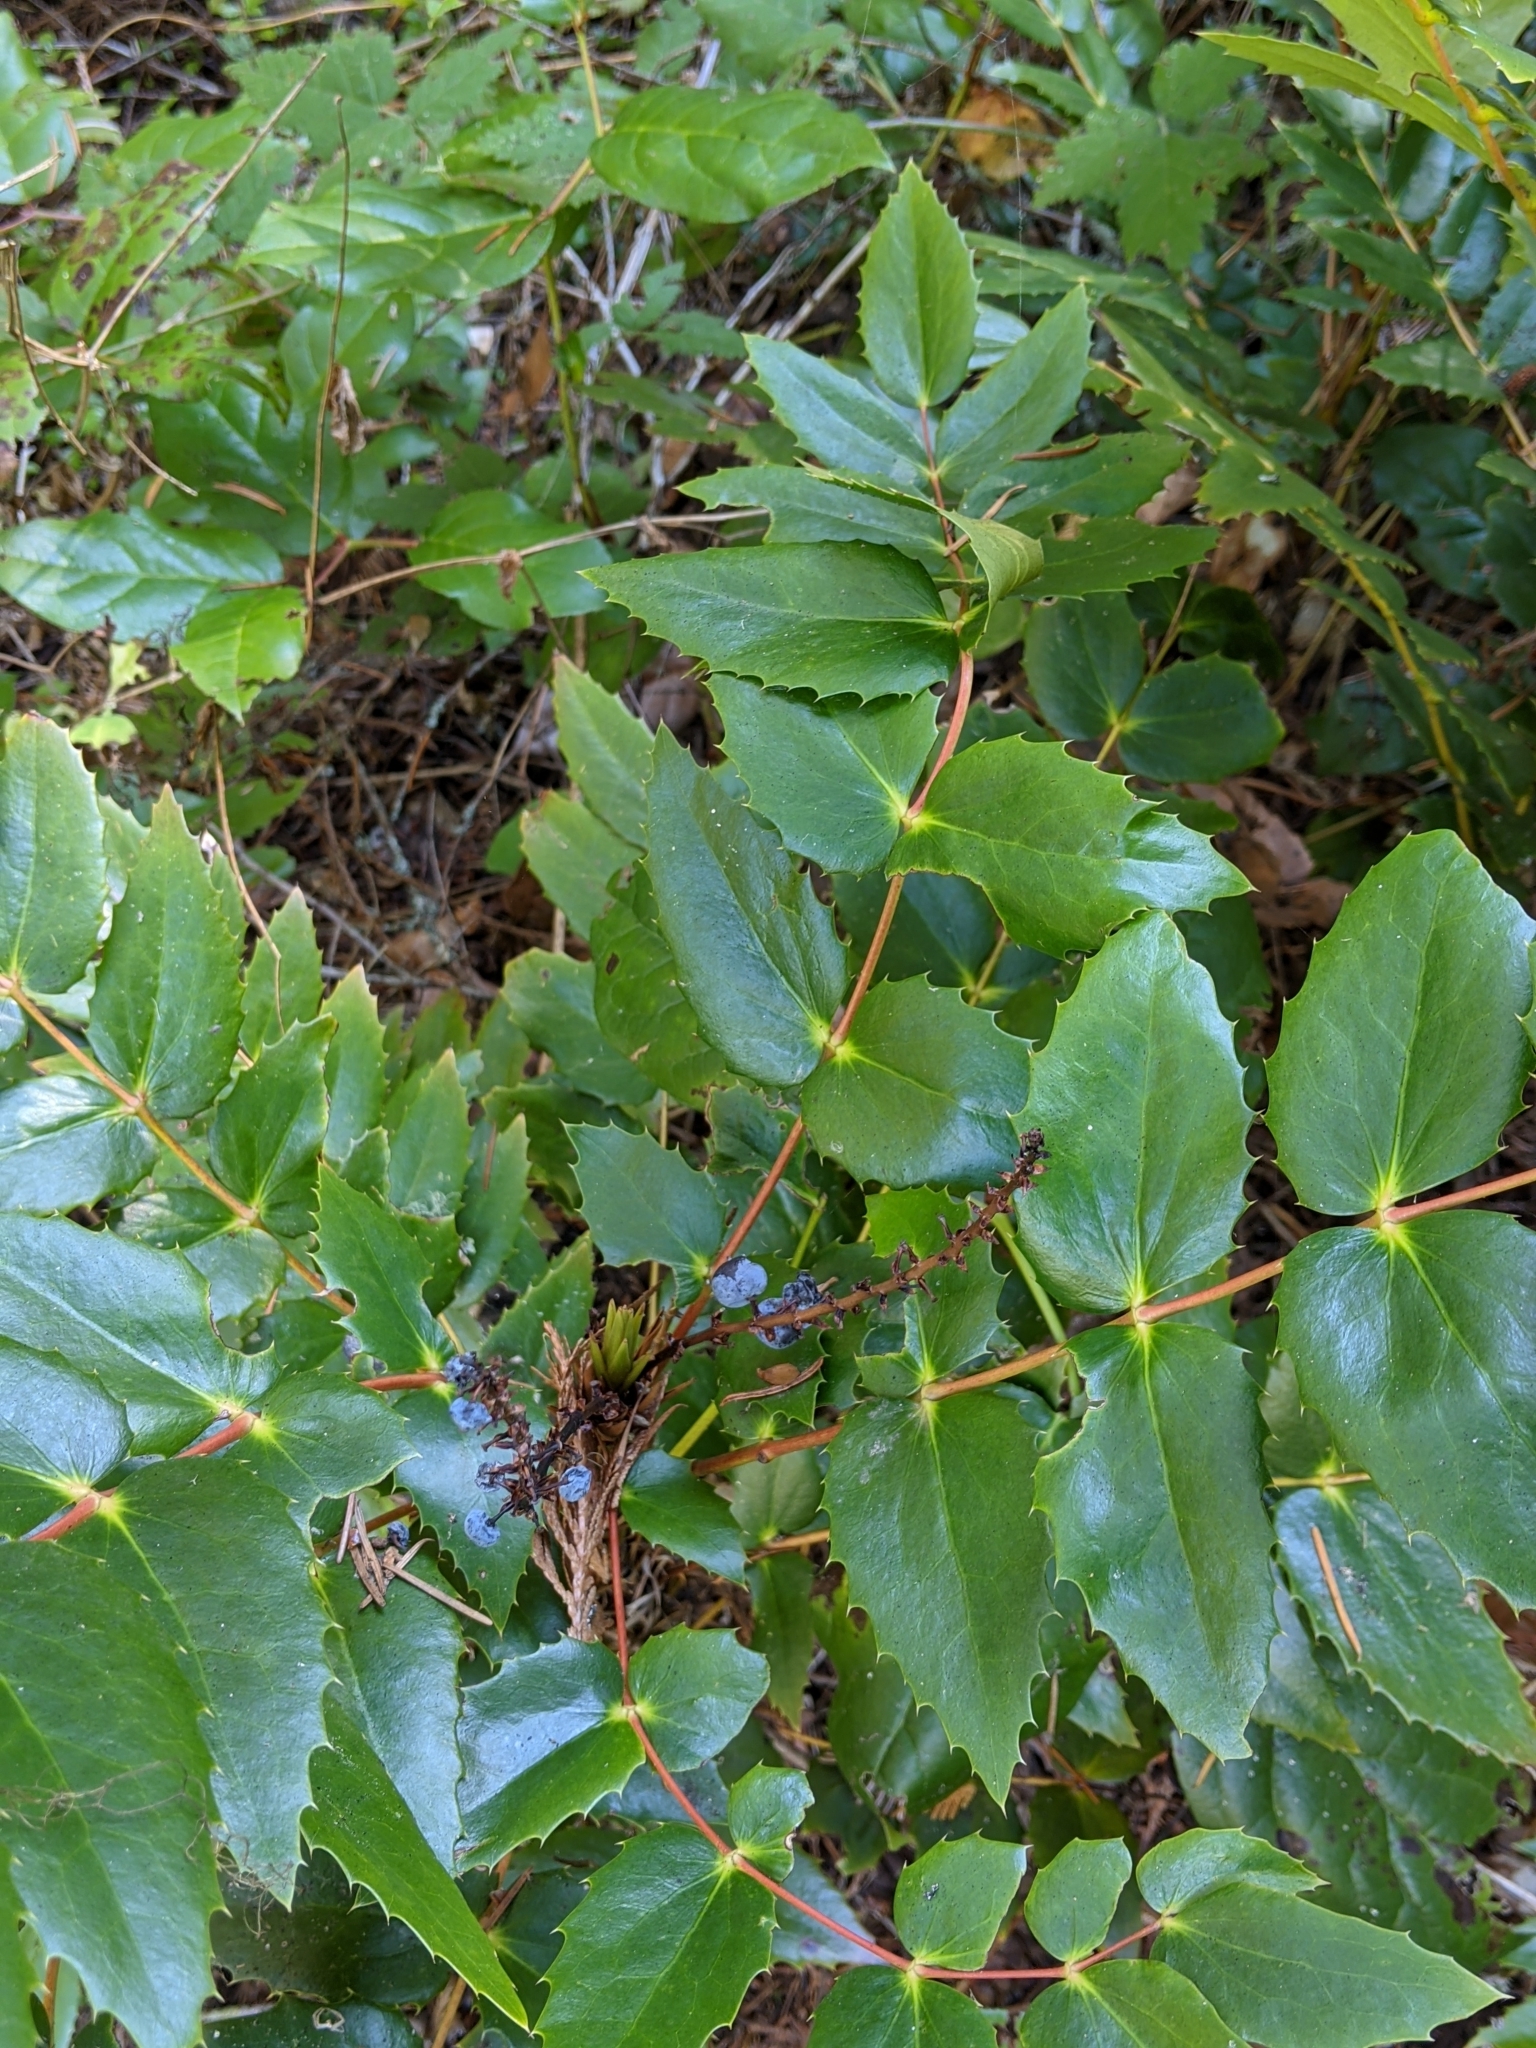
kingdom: Plantae
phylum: Tracheophyta
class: Magnoliopsida
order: Ranunculales
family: Berberidaceae
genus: Mahonia
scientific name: Mahonia nervosa
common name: Cascade oregon-grape
